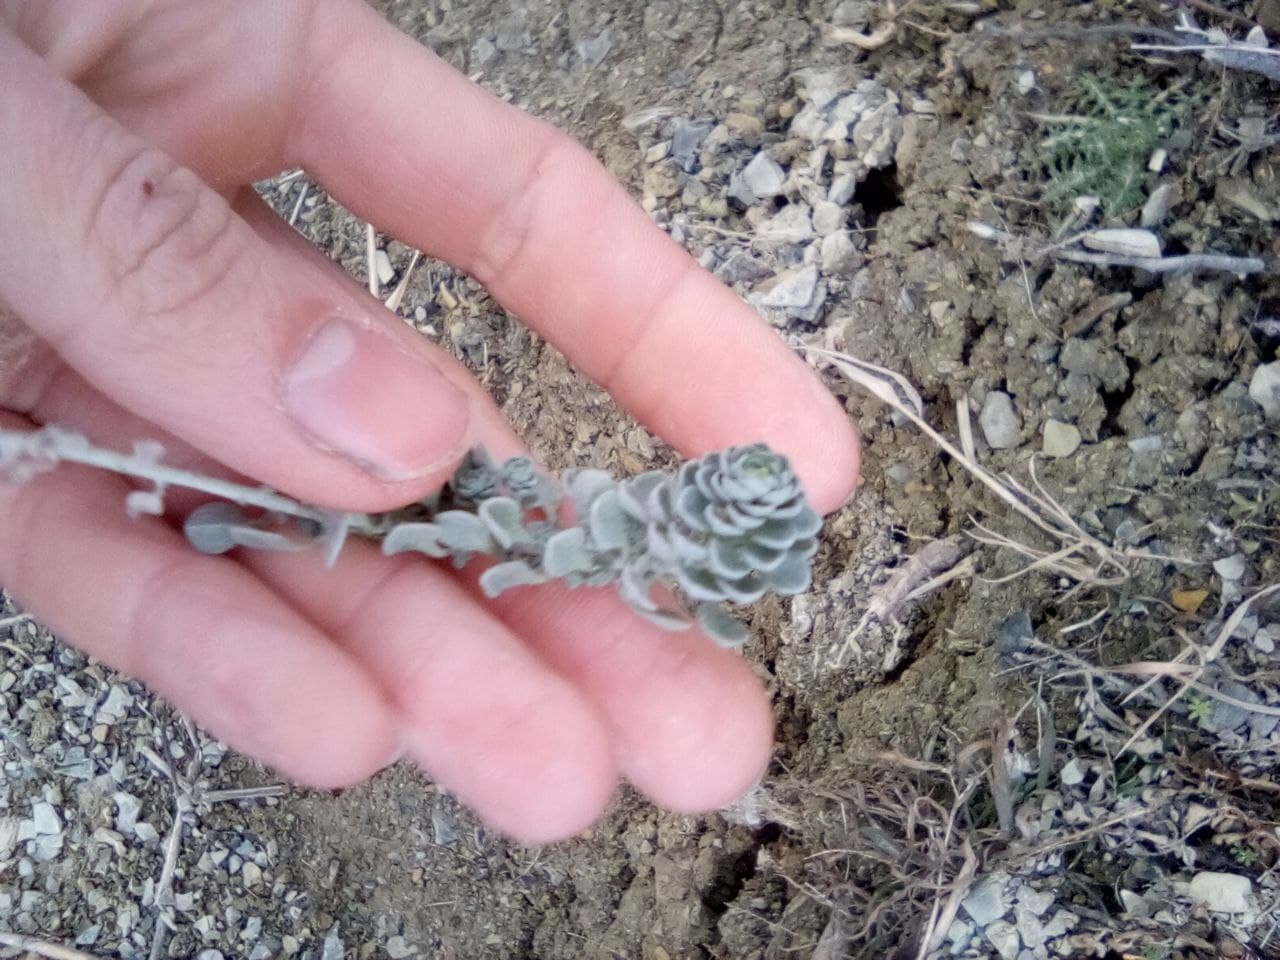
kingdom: Plantae
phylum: Tracheophyta
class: Magnoliopsida
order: Brassicales
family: Brassicaceae
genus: Odontarrhena
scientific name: Odontarrhena obtusifolia
